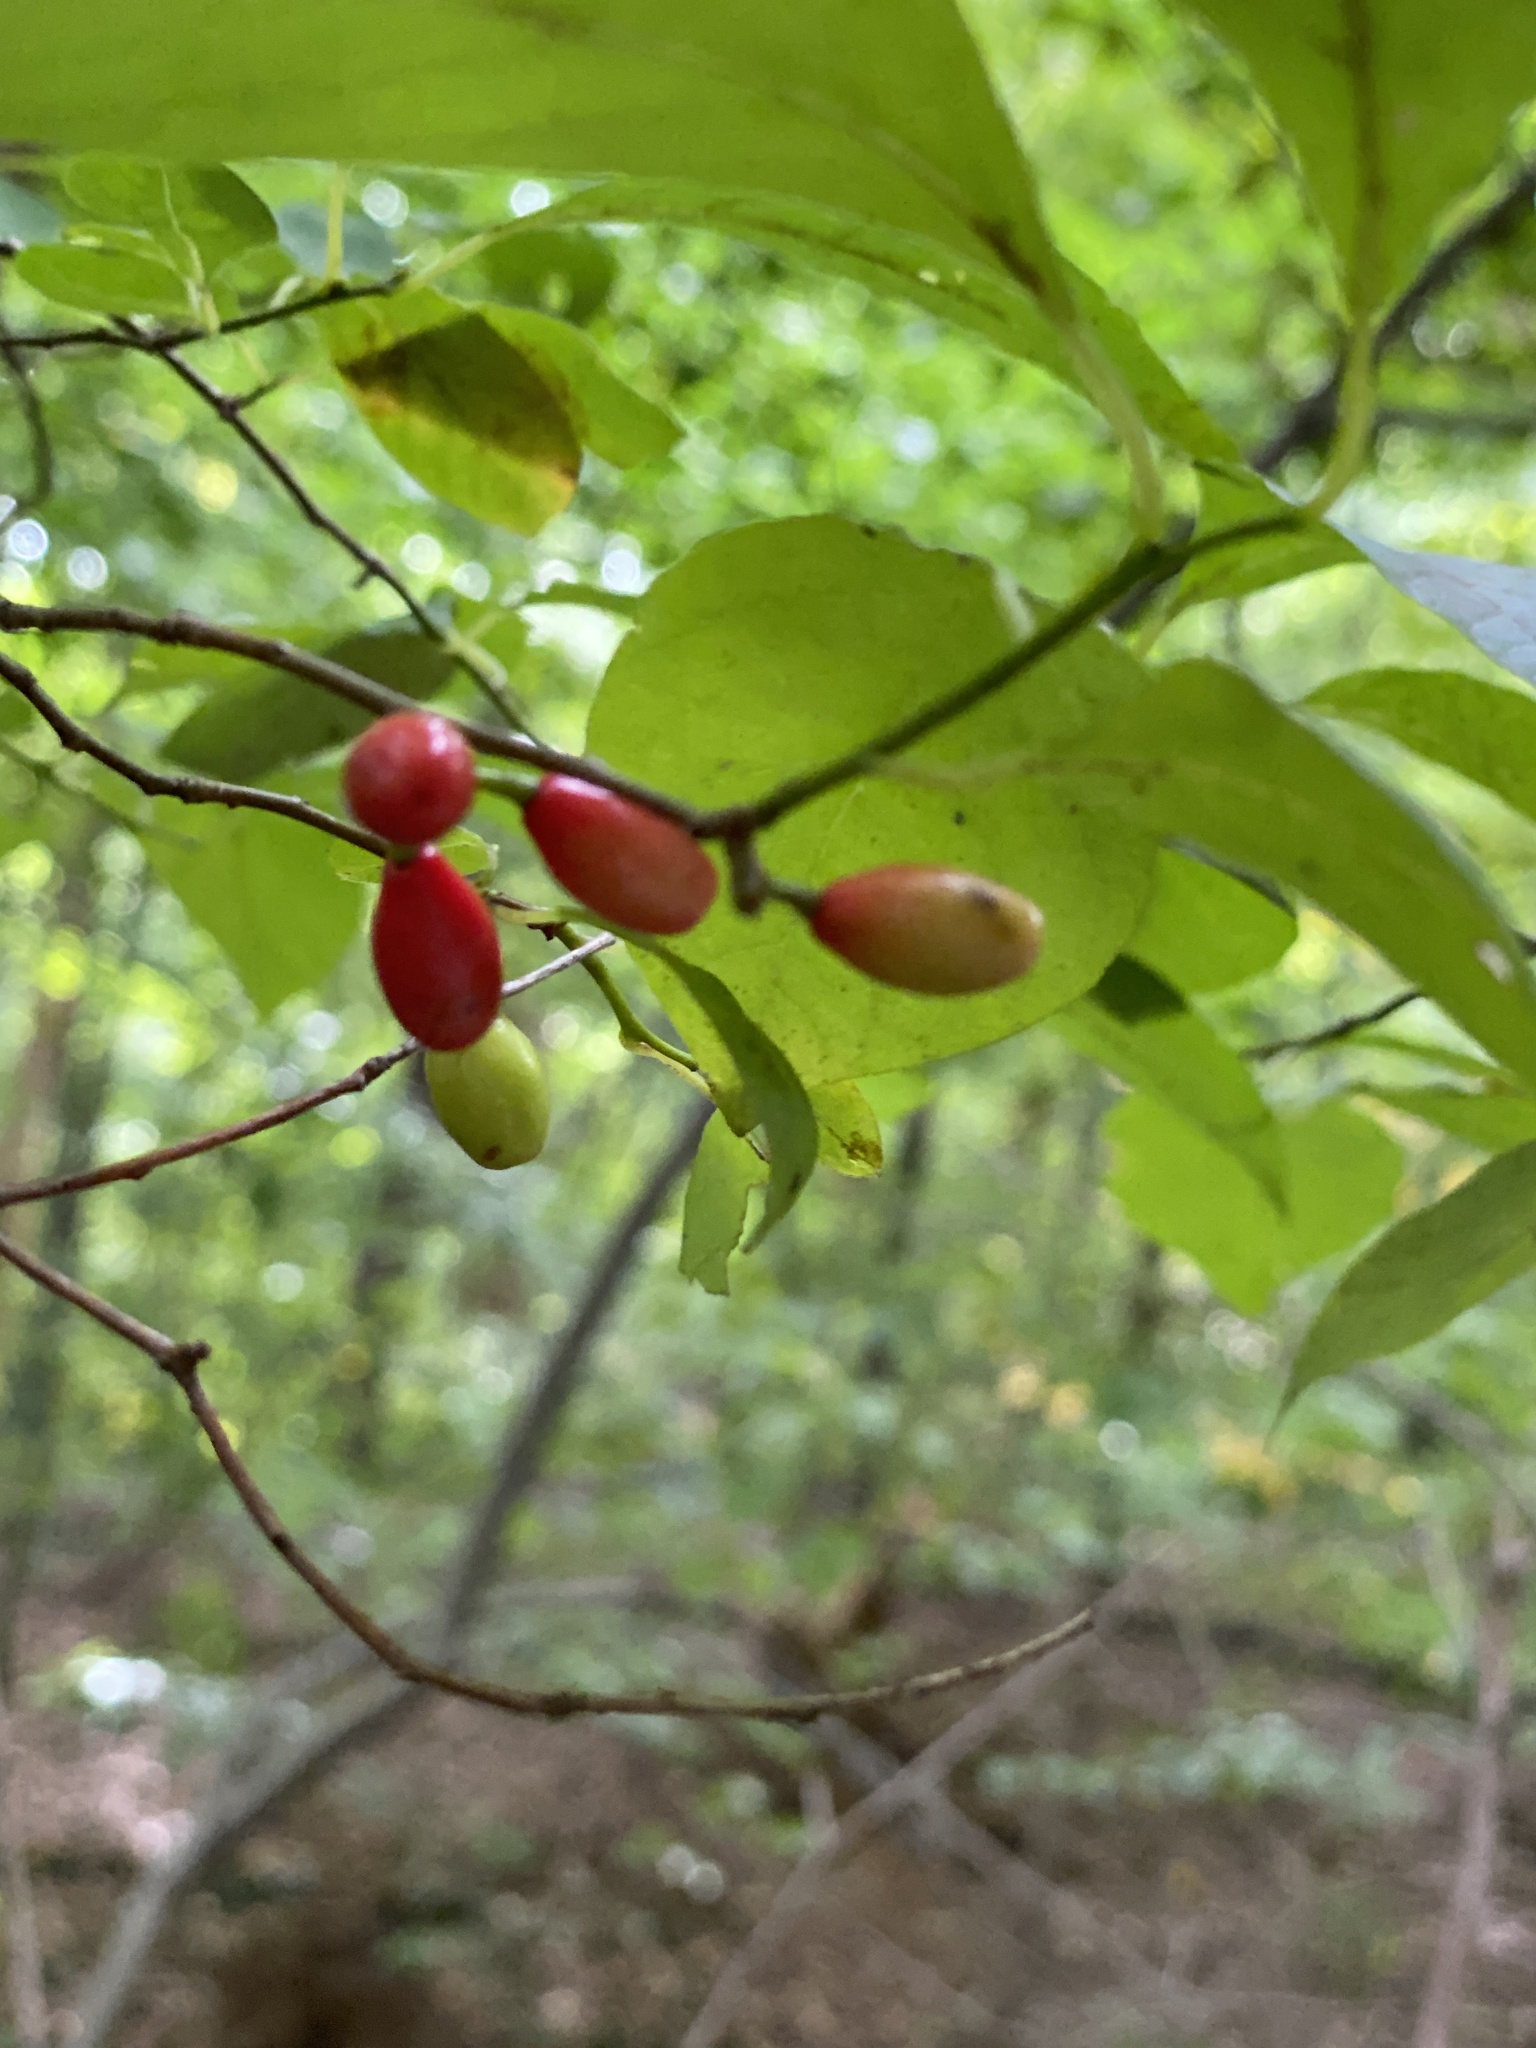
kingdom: Plantae
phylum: Tracheophyta
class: Magnoliopsida
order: Laurales
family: Lauraceae
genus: Lindera
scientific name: Lindera benzoin
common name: Spicebush
